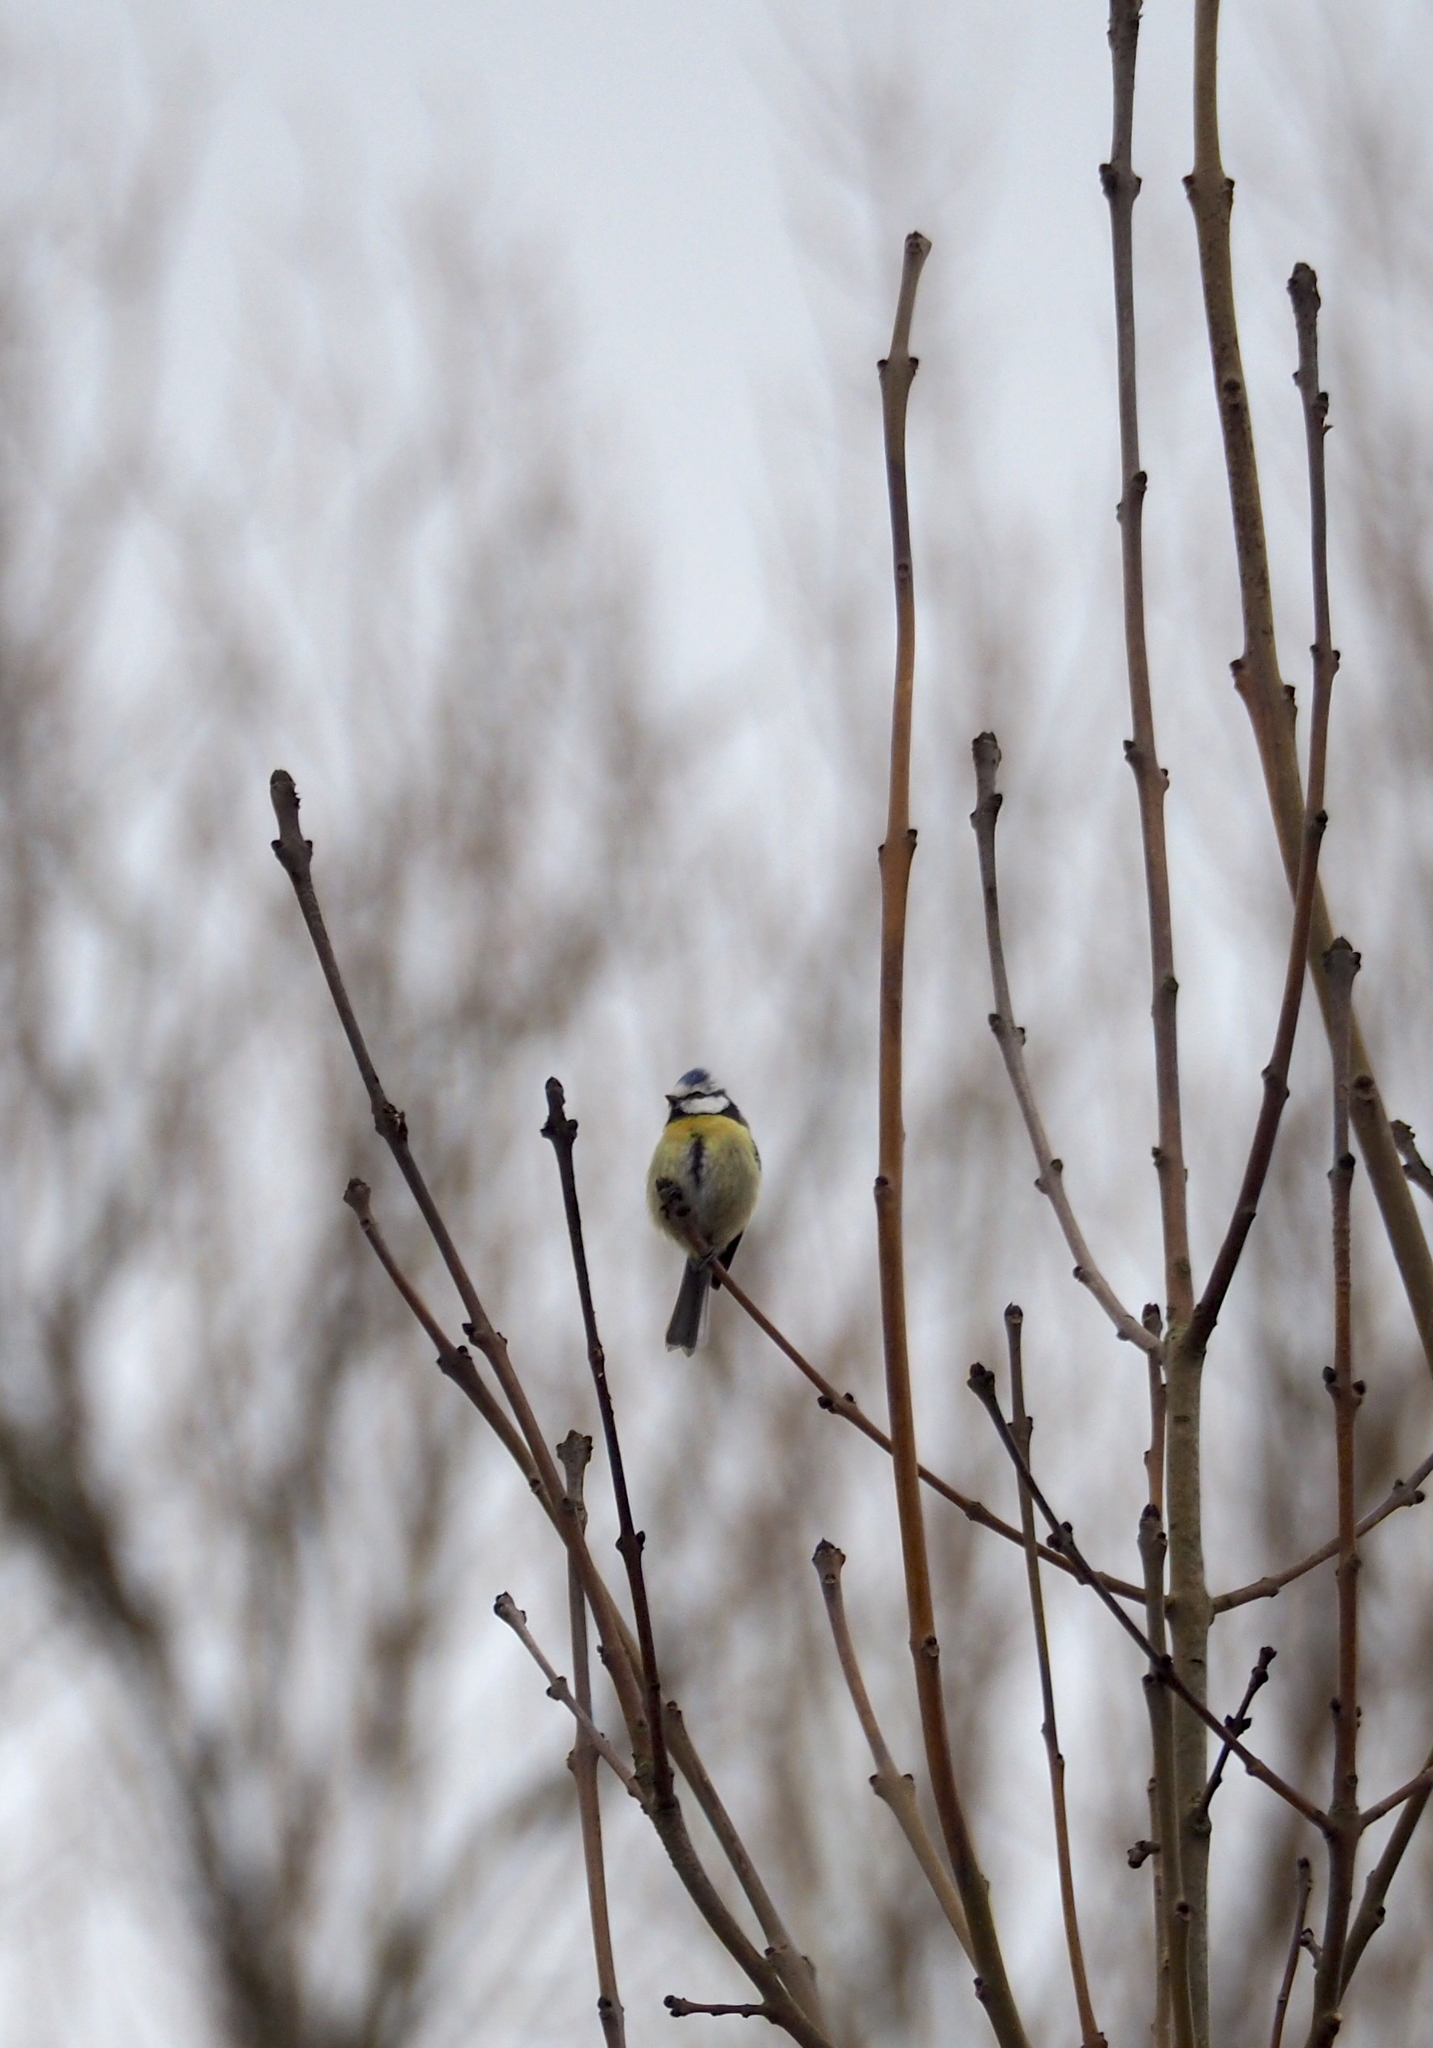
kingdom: Animalia
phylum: Chordata
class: Aves
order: Passeriformes
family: Paridae
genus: Cyanistes
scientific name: Cyanistes caeruleus
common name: Eurasian blue tit
